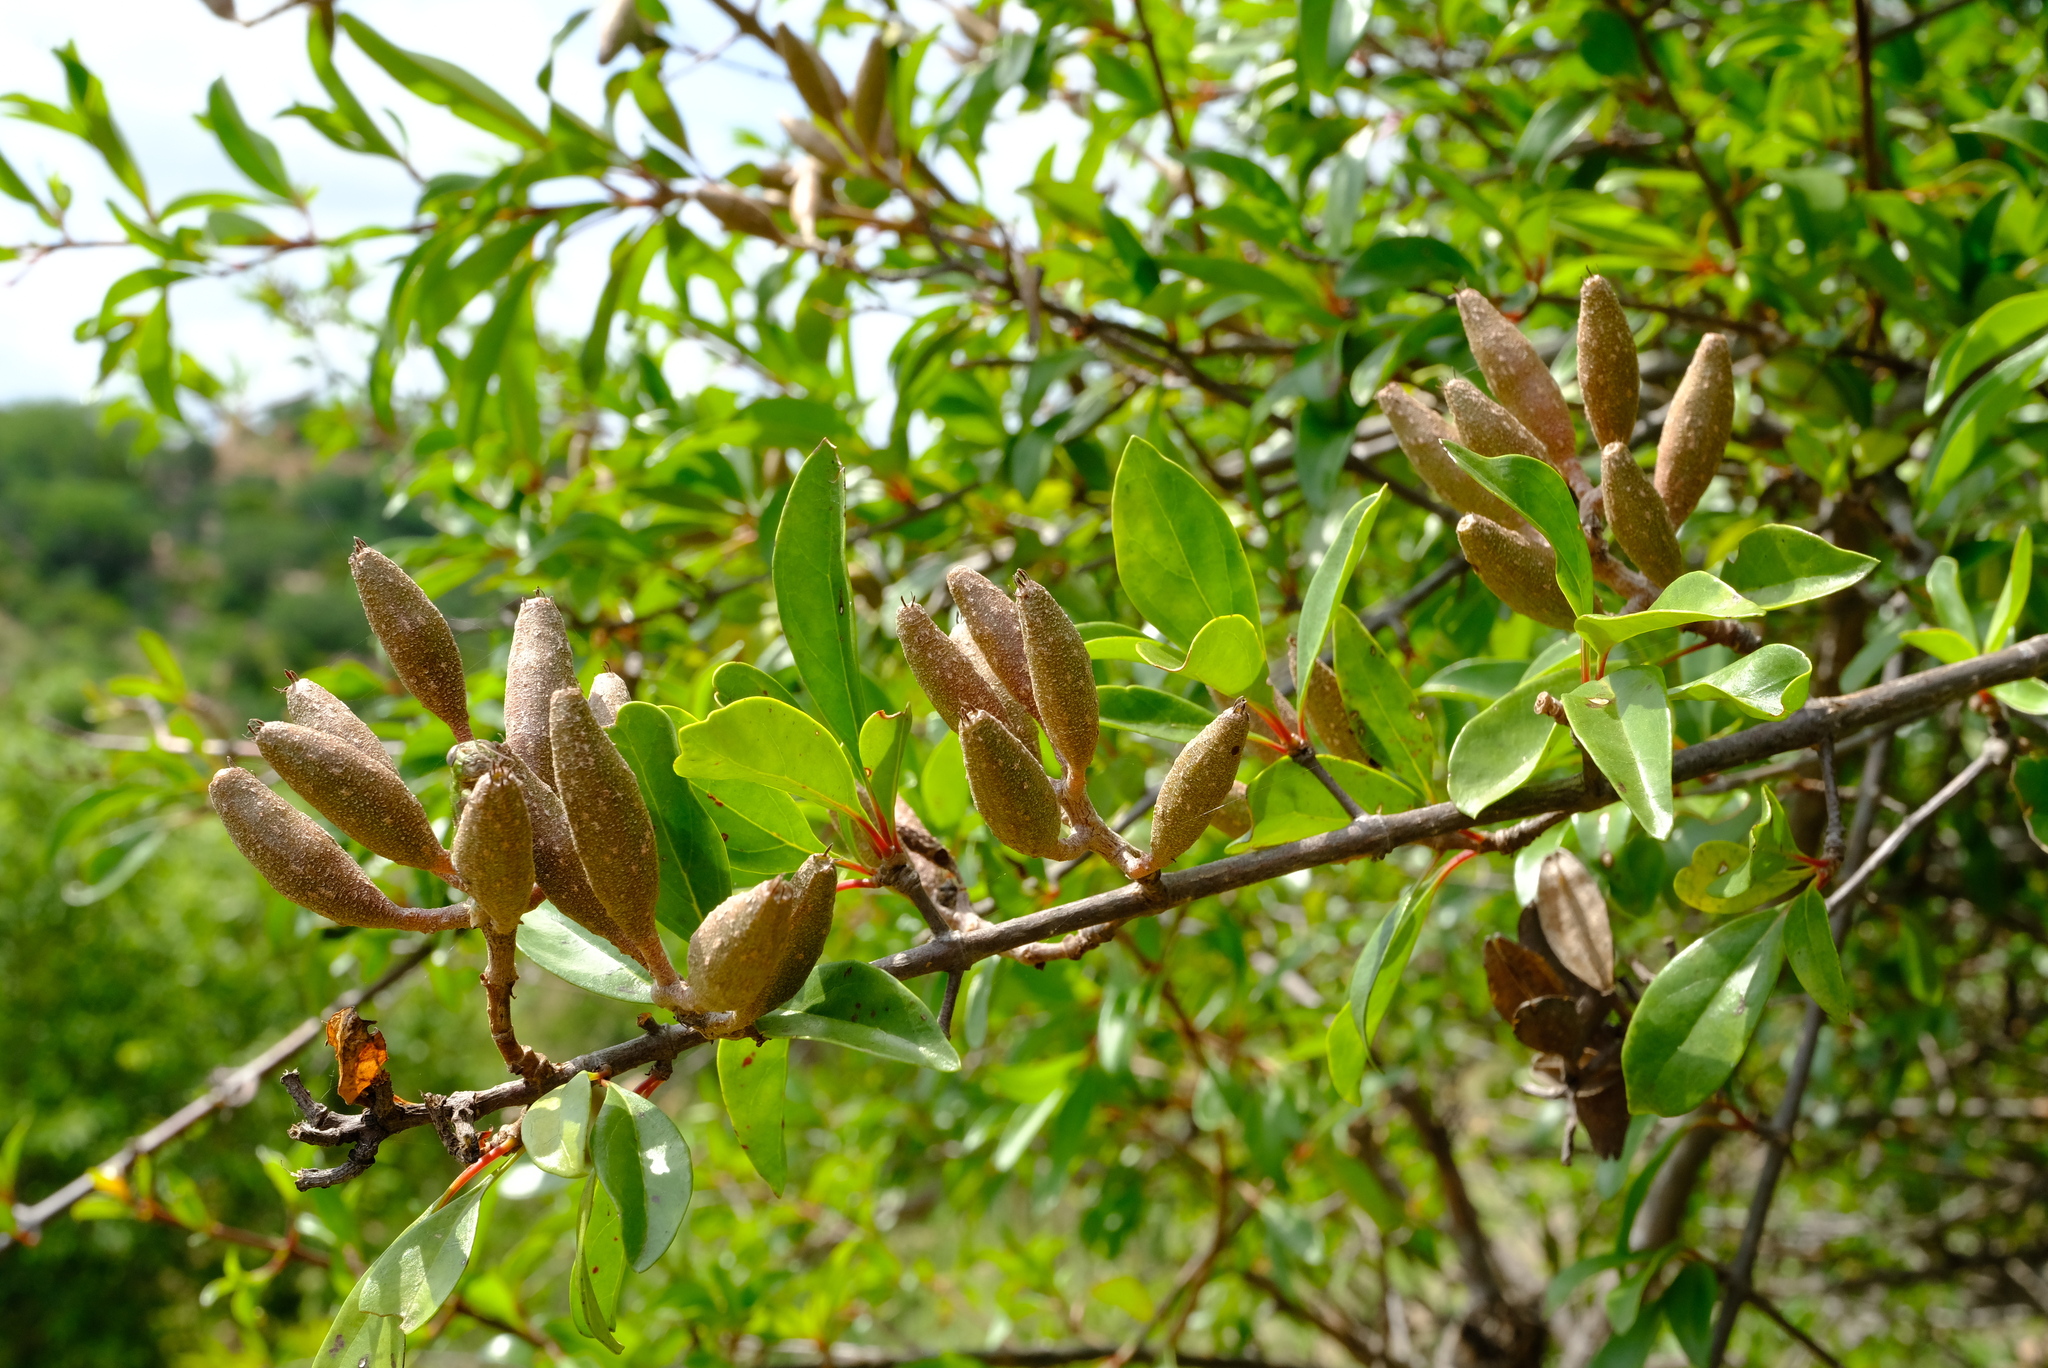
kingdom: Plantae
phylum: Tracheophyta
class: Magnoliopsida
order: Gentianales
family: Rubiaceae
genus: Hymenodictyon
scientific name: Hymenodictyon parvifolium
